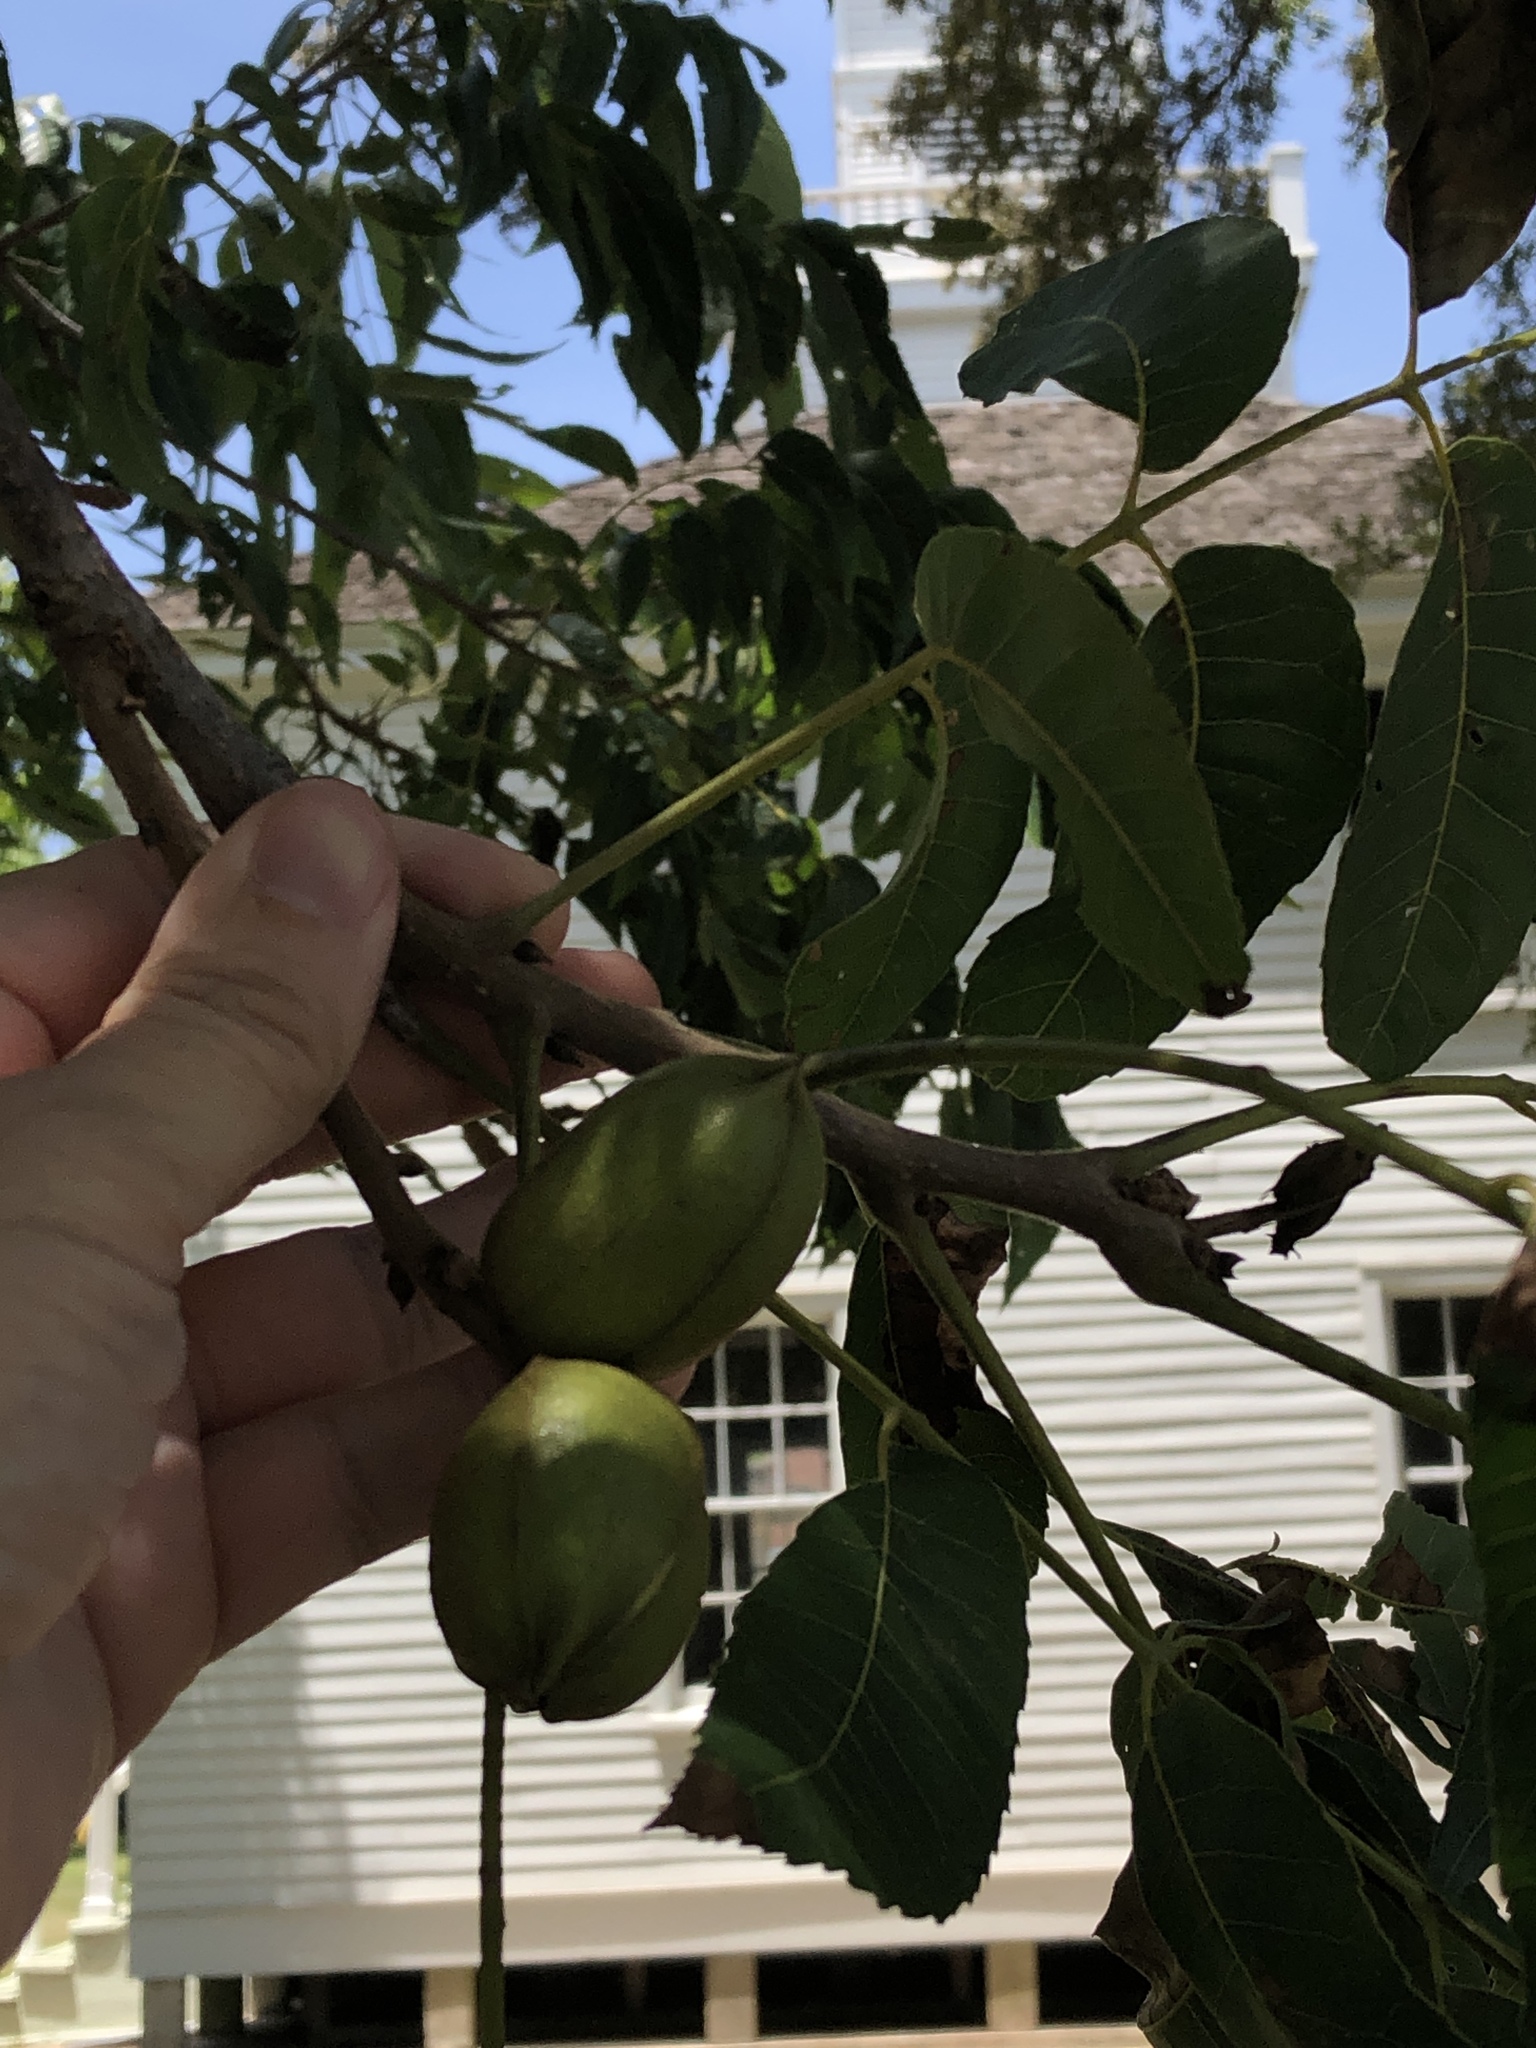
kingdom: Plantae
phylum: Tracheophyta
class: Magnoliopsida
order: Fagales
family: Juglandaceae
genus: Carya
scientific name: Carya illinoinensis
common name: Pecan
